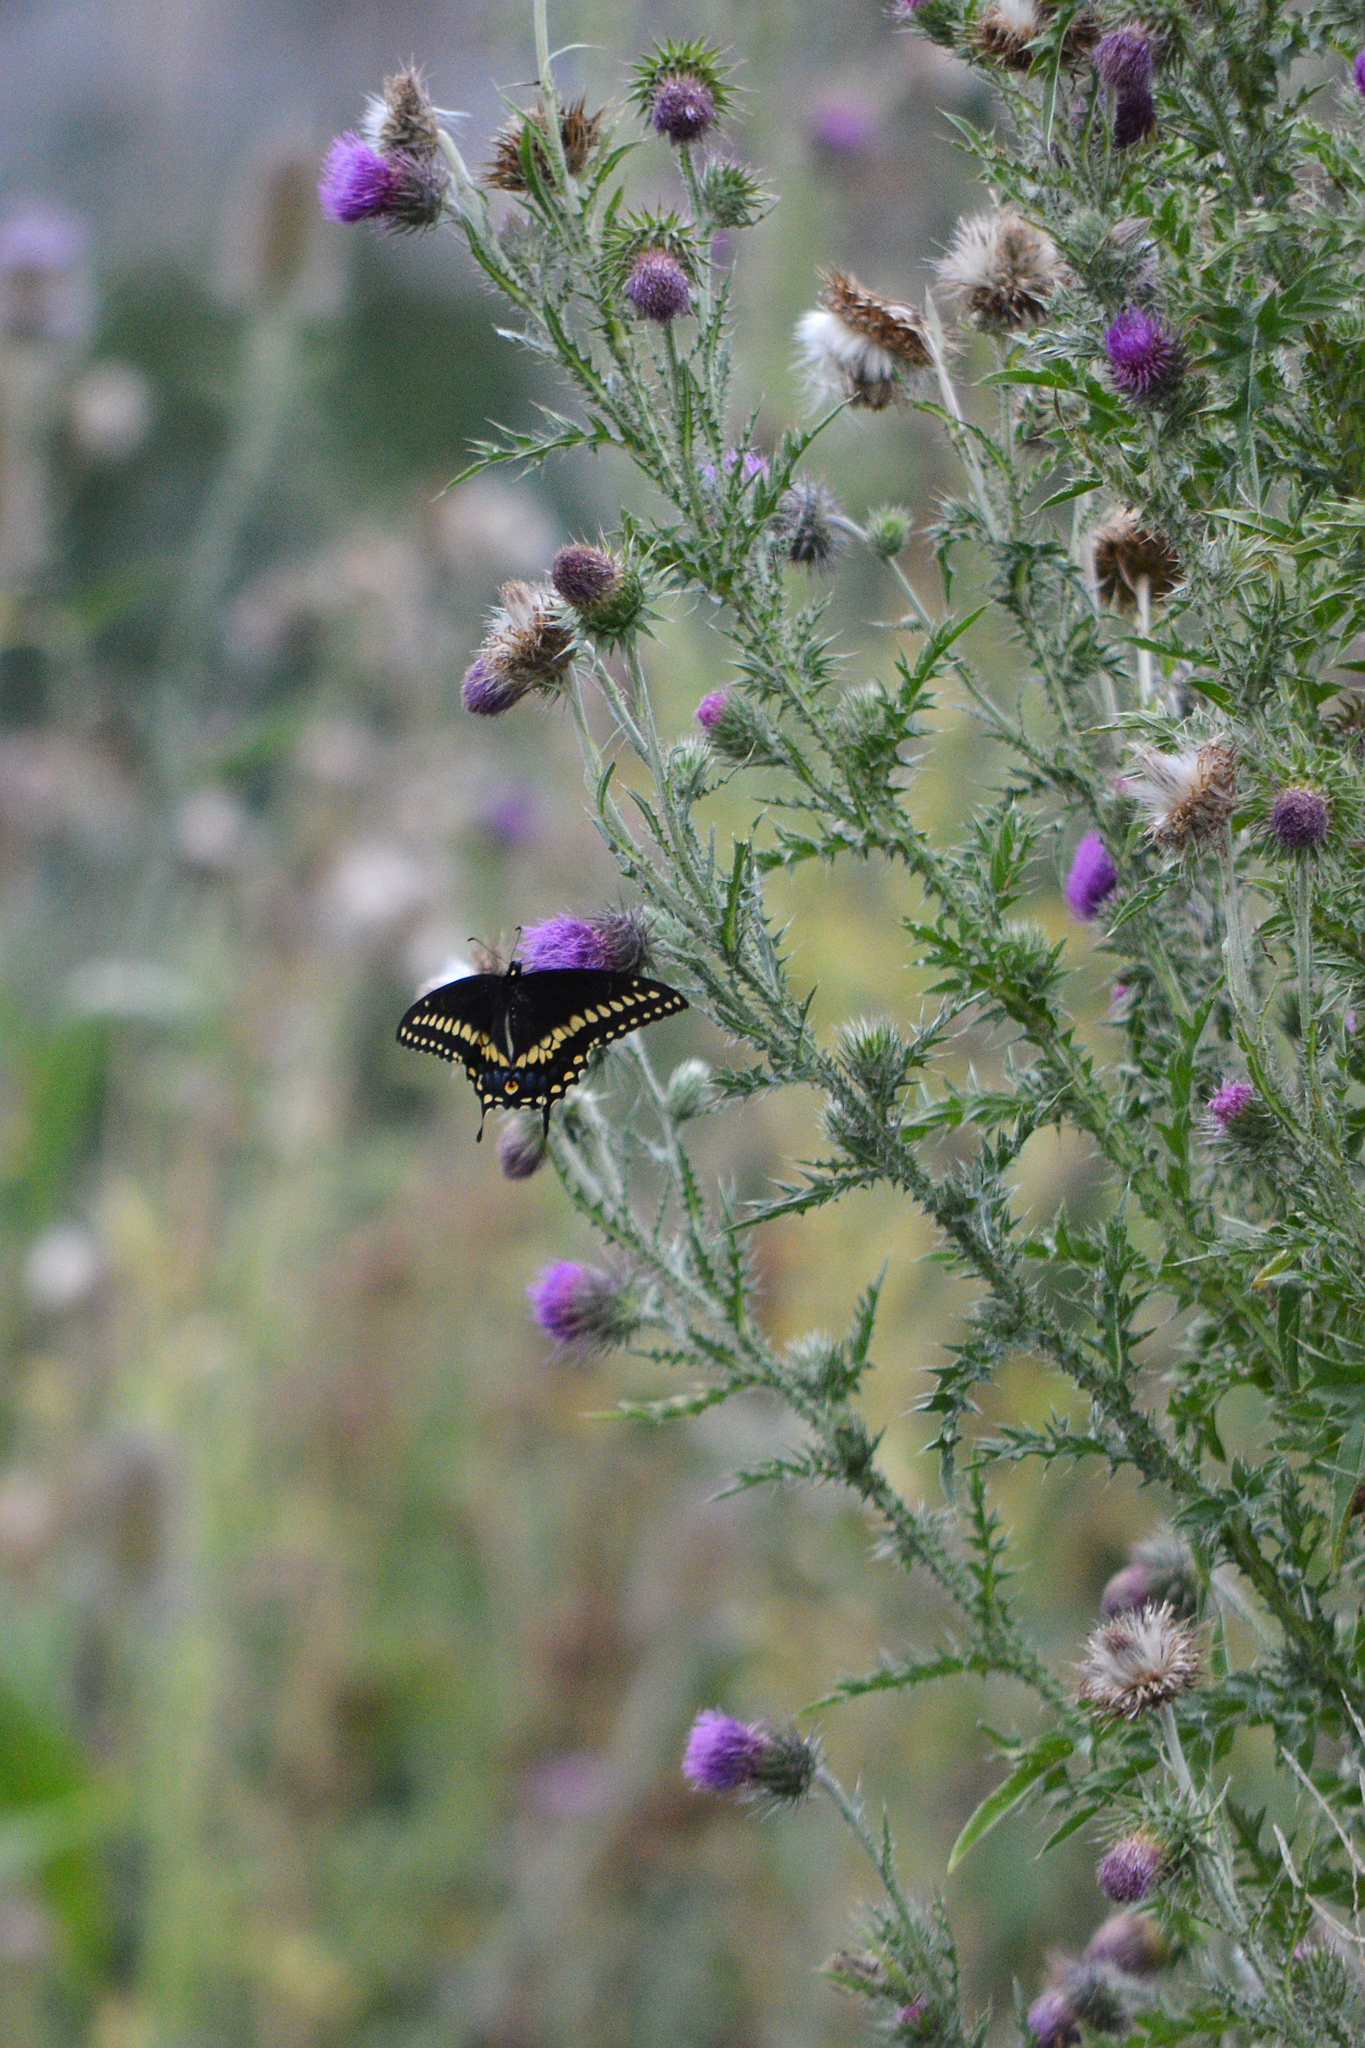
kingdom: Plantae
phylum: Tracheophyta
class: Magnoliopsida
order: Asterales
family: Asteraceae
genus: Carduus
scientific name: Carduus acanthoides
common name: Plumeless thistle
